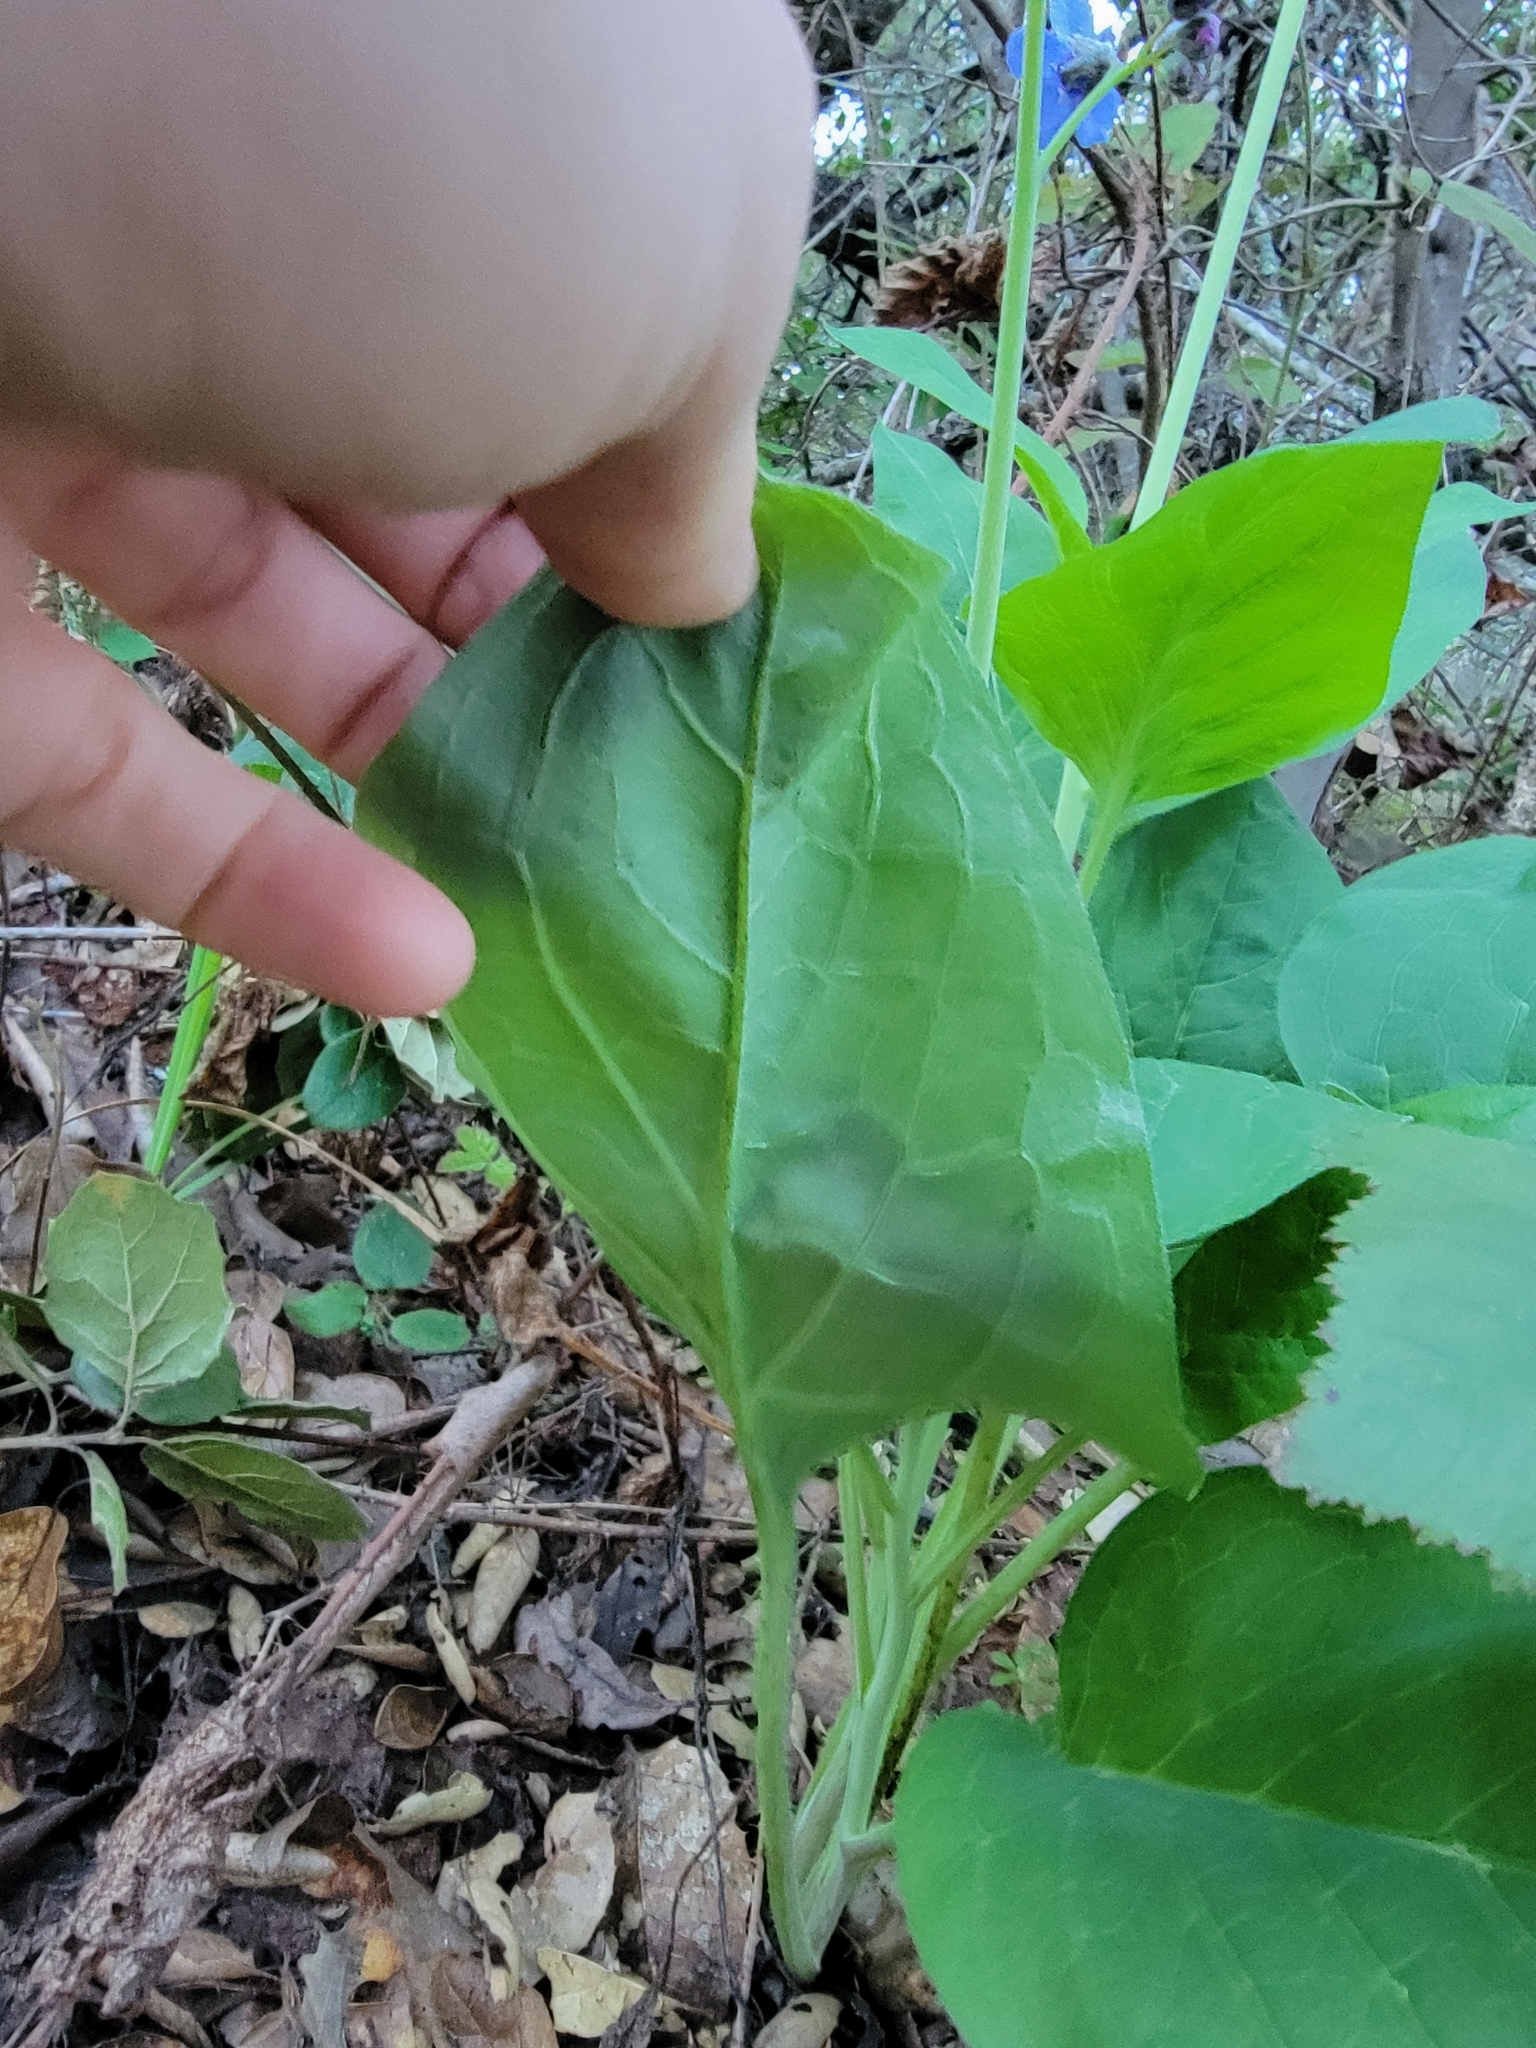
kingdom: Plantae
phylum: Tracheophyta
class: Magnoliopsida
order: Boraginales
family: Boraginaceae
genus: Adelinia
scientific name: Adelinia grande
